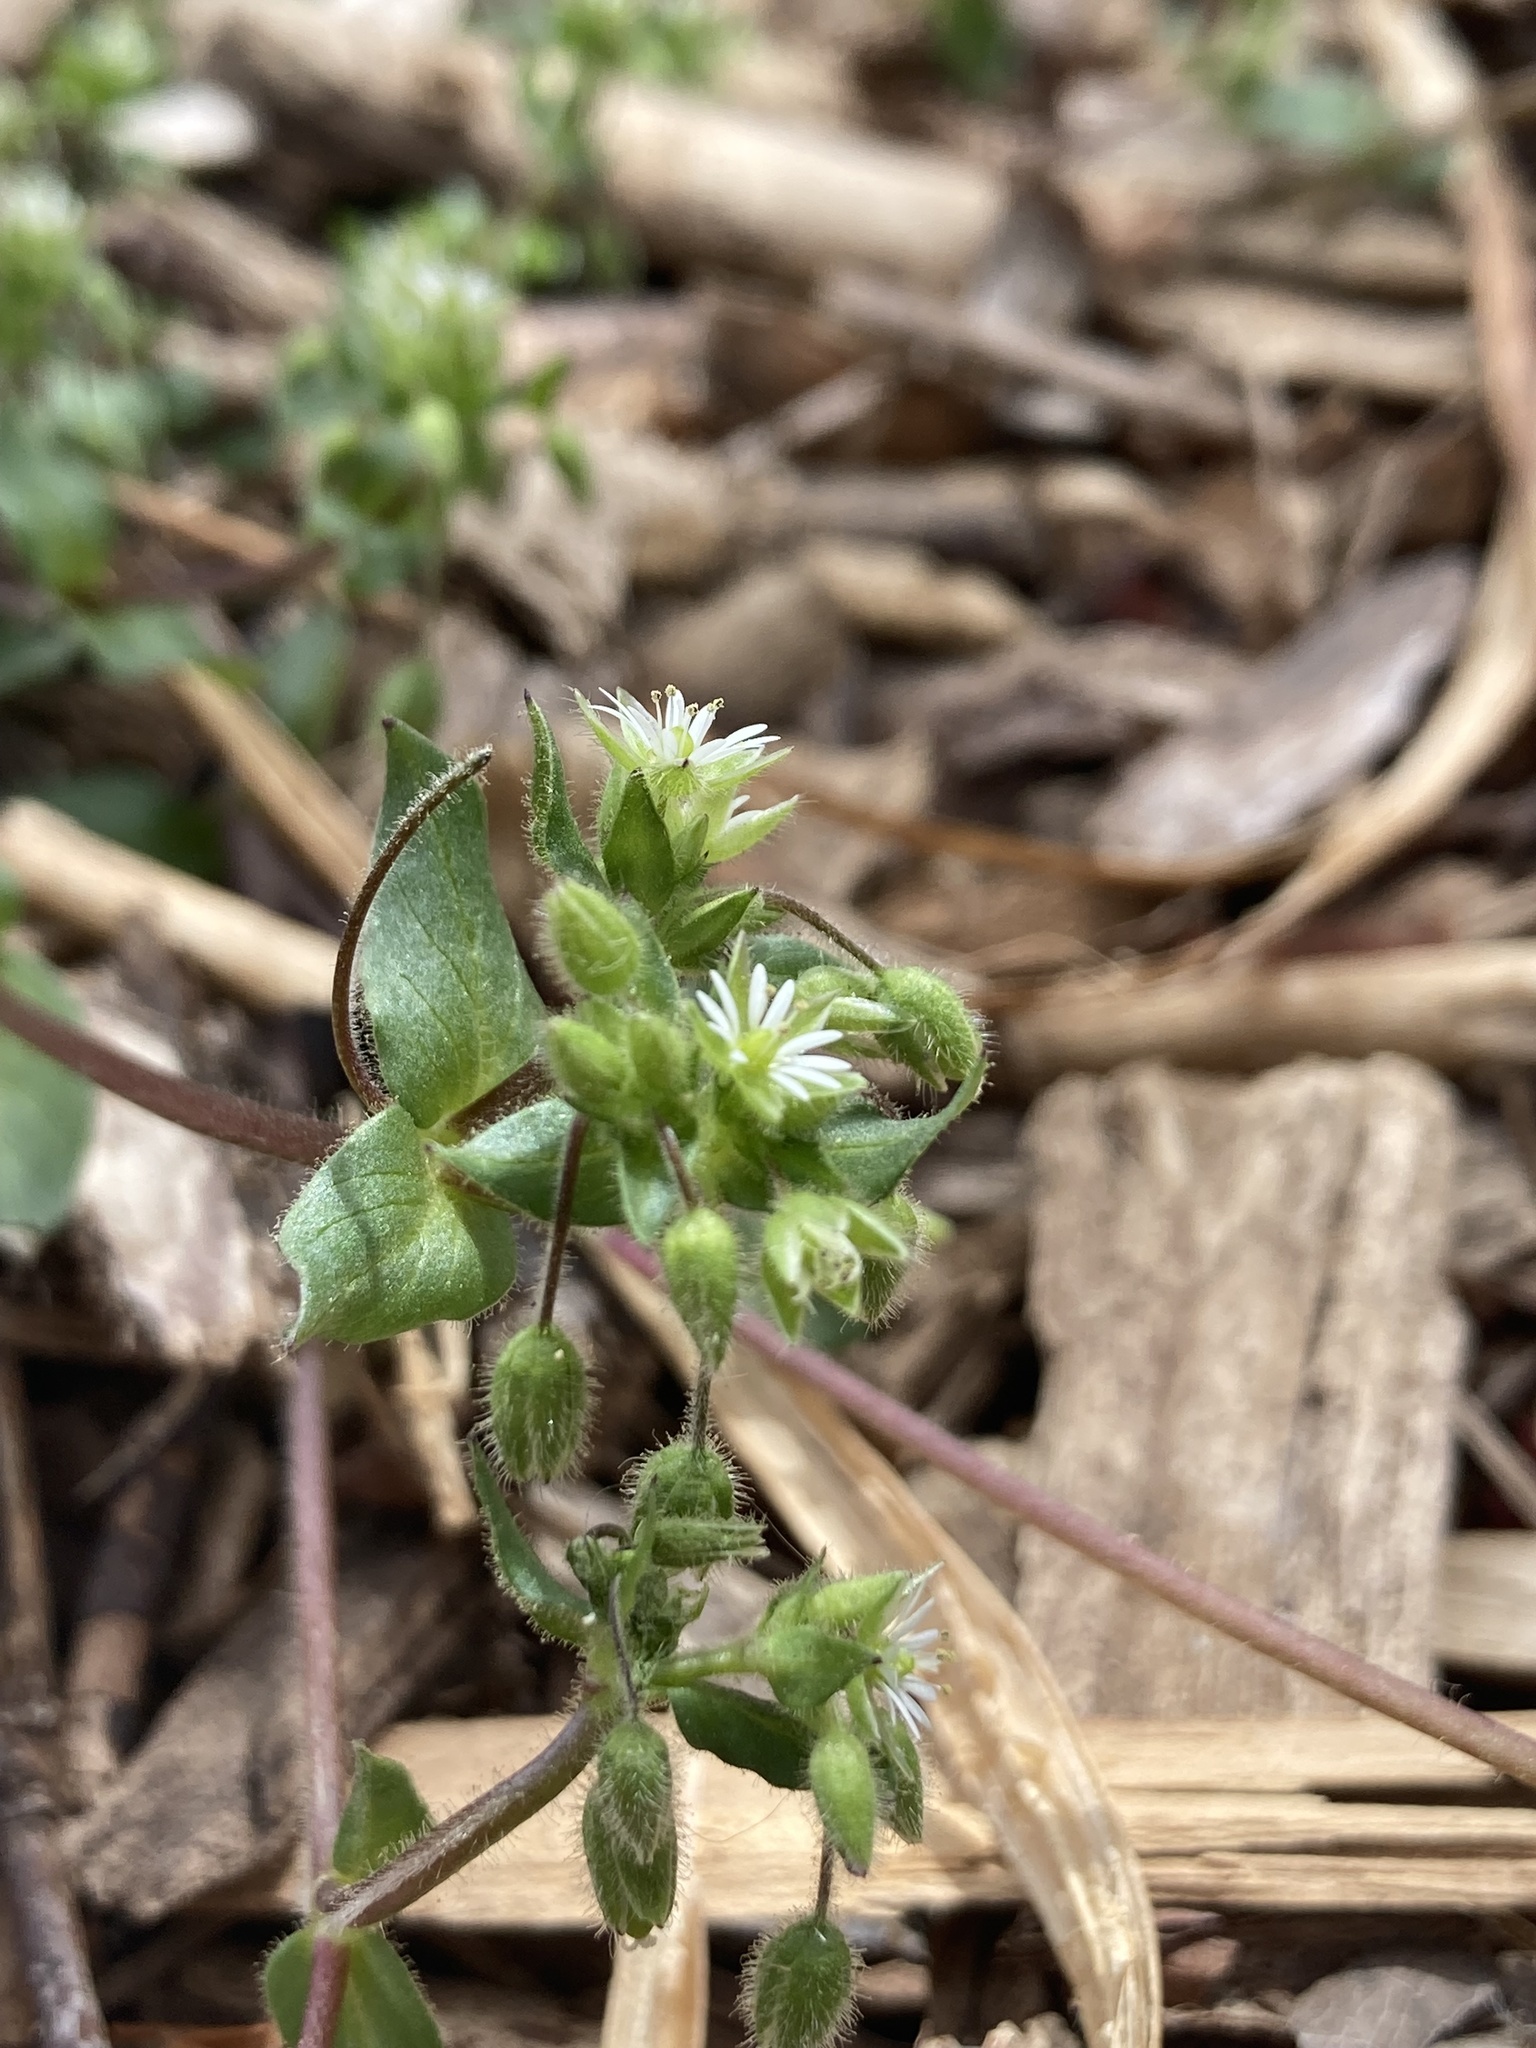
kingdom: Plantae
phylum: Tracheophyta
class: Magnoliopsida
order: Caryophyllales
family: Caryophyllaceae
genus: Stellaria
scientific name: Stellaria media
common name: Common chickweed
